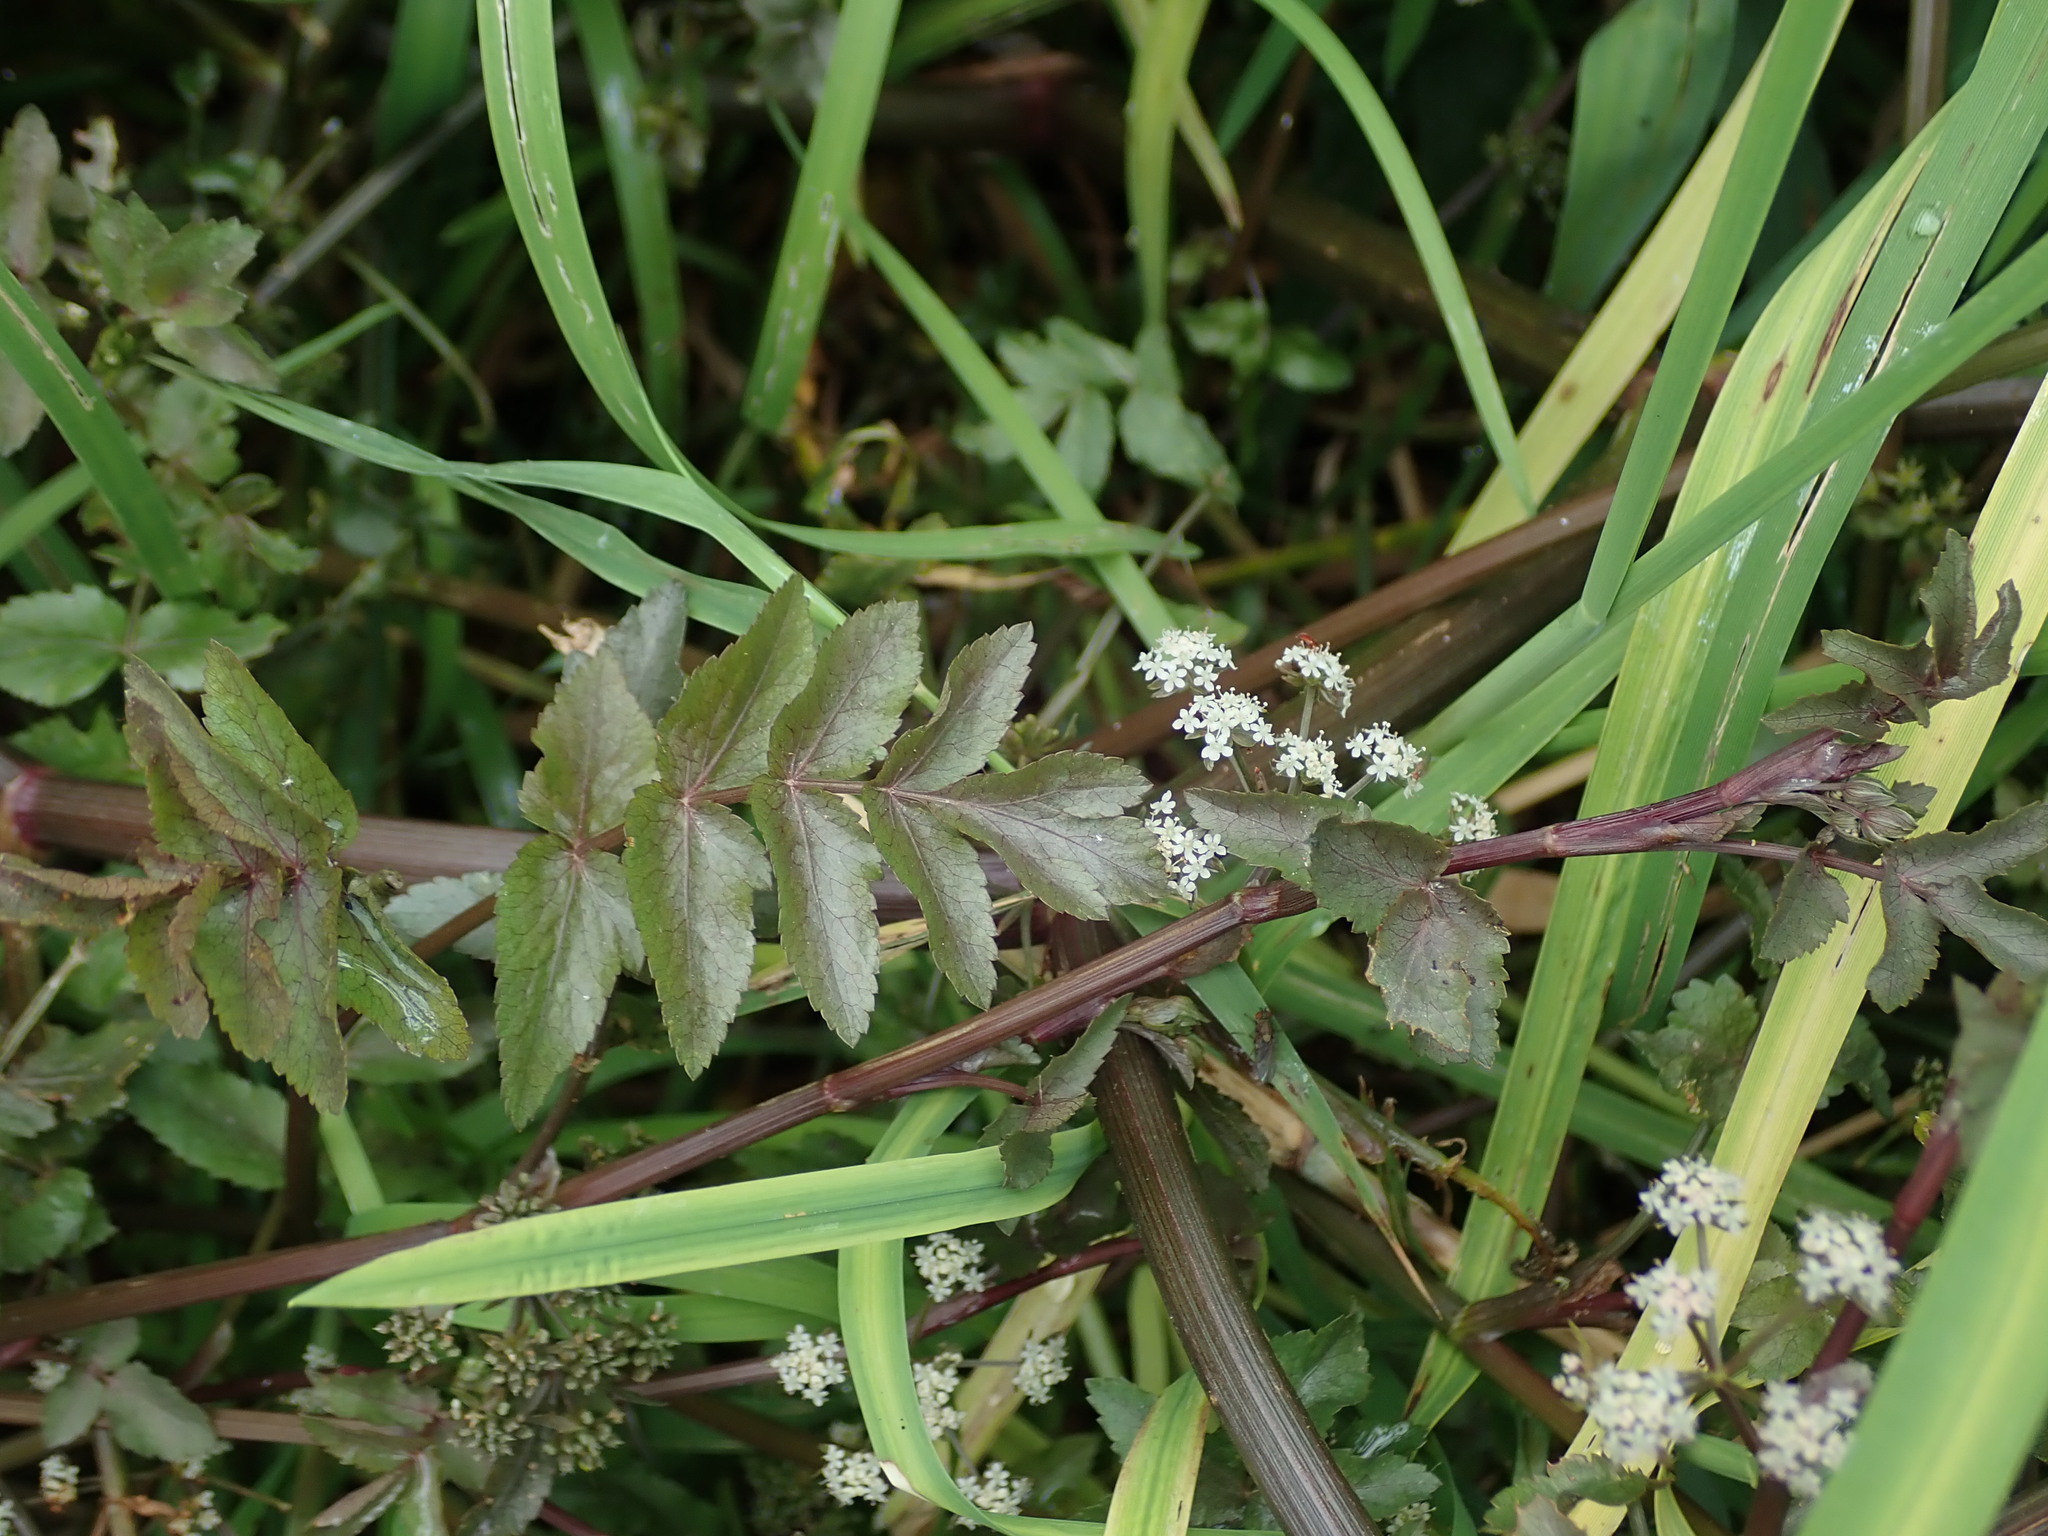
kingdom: Plantae
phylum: Tracheophyta
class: Magnoliopsida
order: Apiales
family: Apiaceae
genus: Helosciadium
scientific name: Helosciadium nodiflorum
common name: Fool's-watercress
